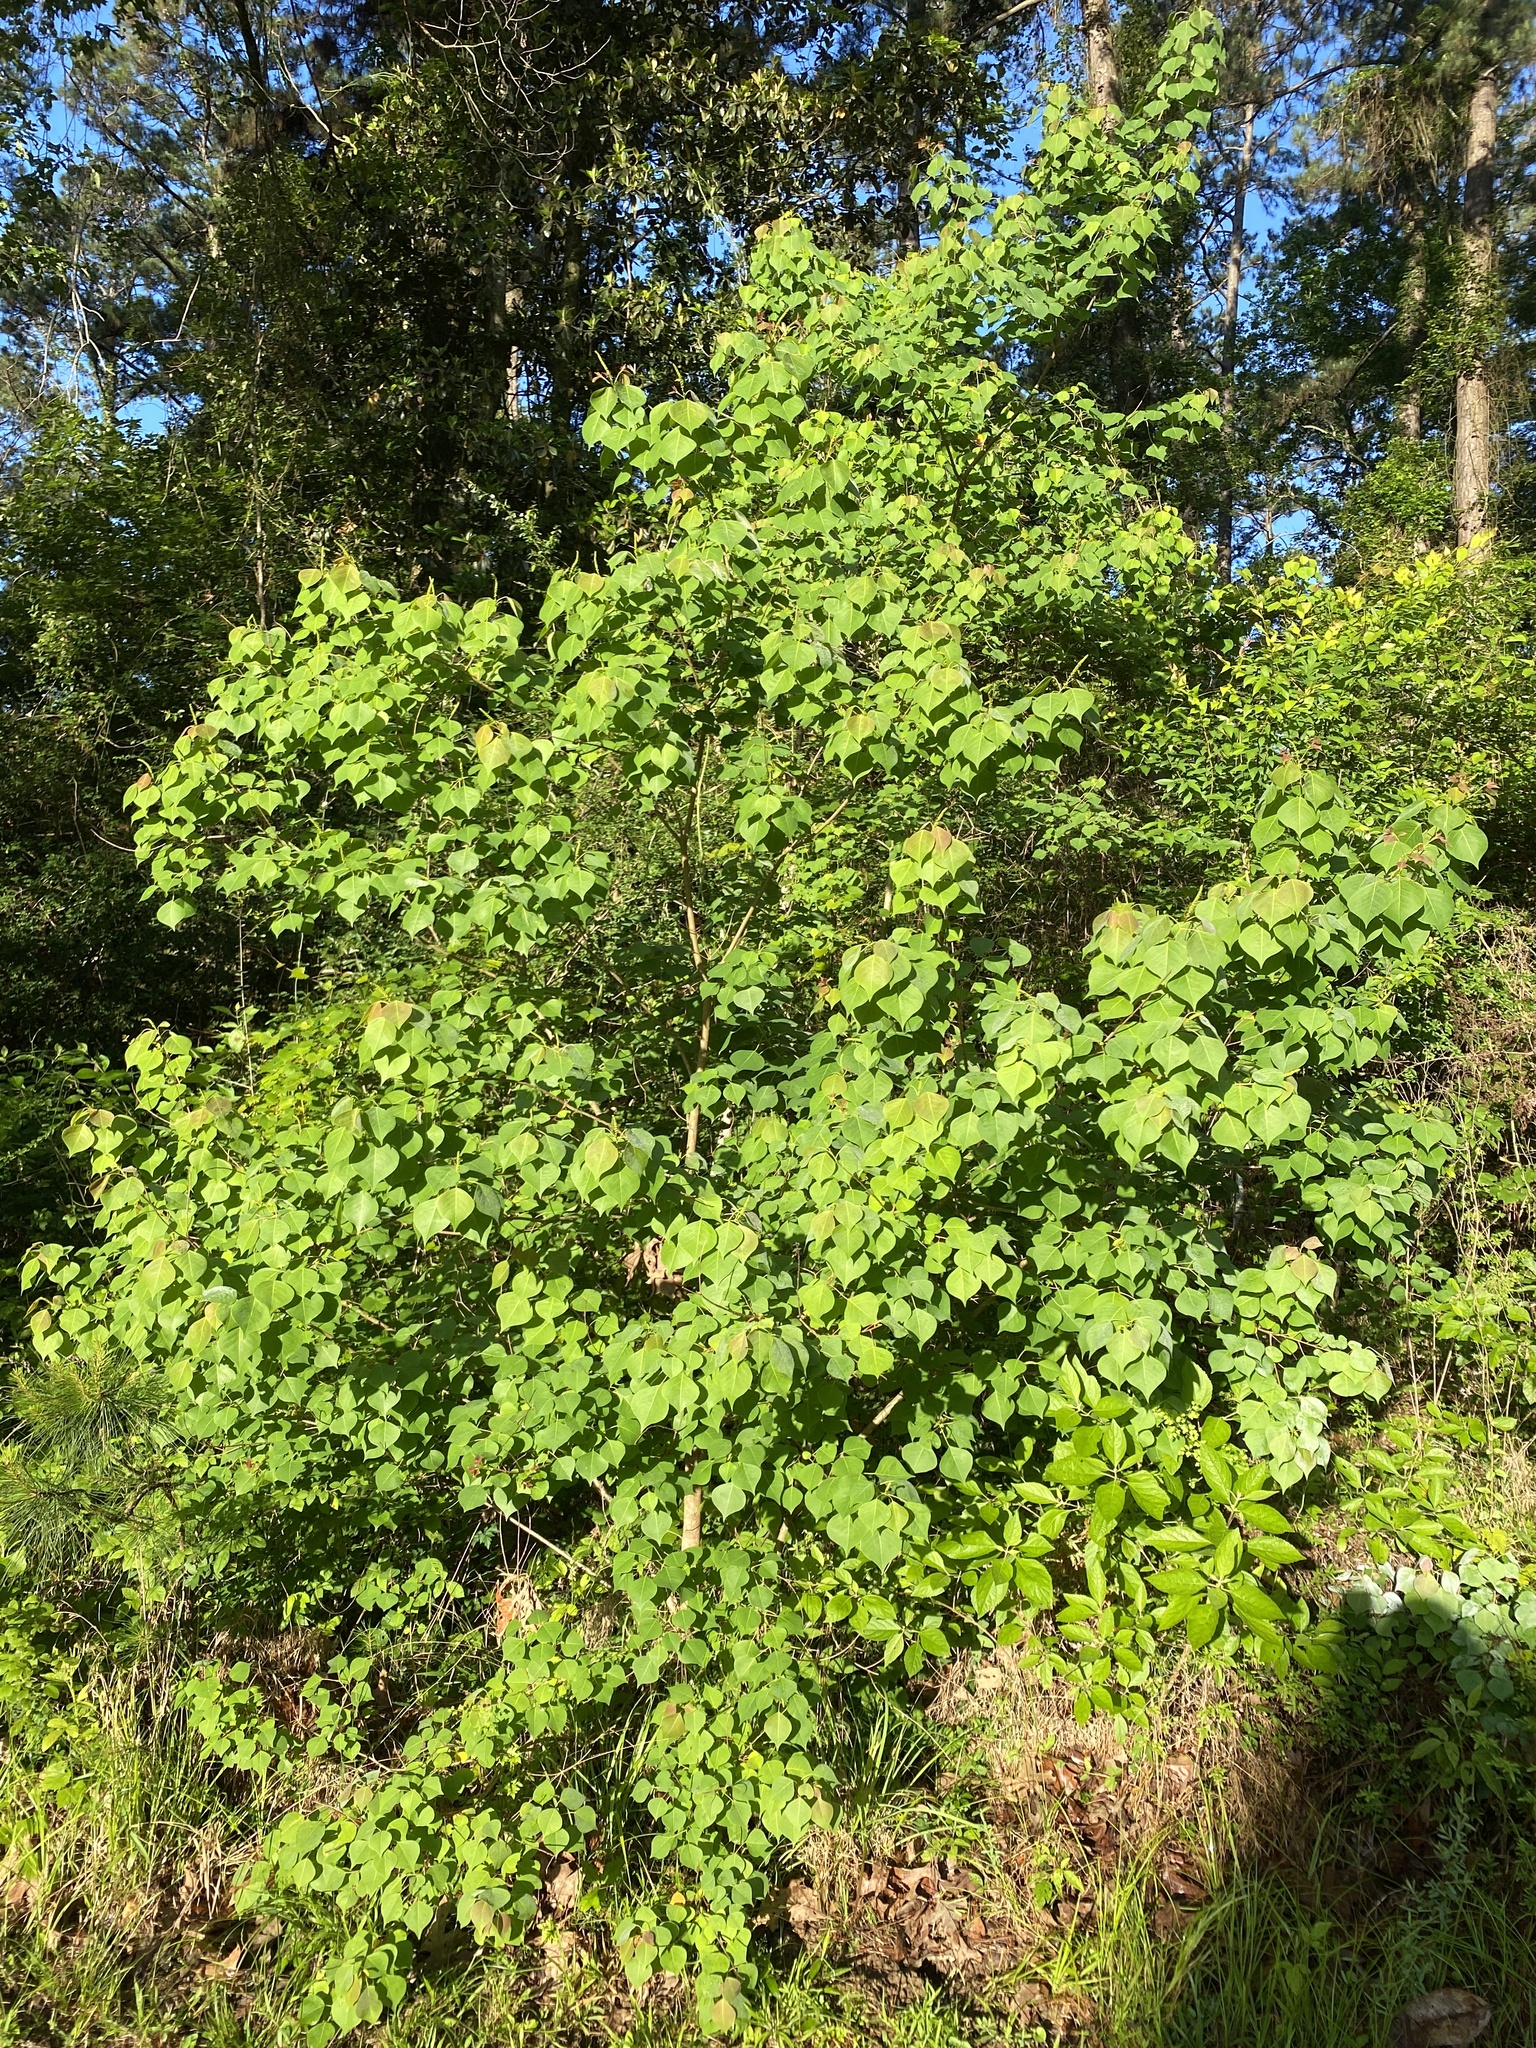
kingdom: Plantae
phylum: Tracheophyta
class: Magnoliopsida
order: Malpighiales
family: Euphorbiaceae
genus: Triadica
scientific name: Triadica sebifera
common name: Chinese tallow
